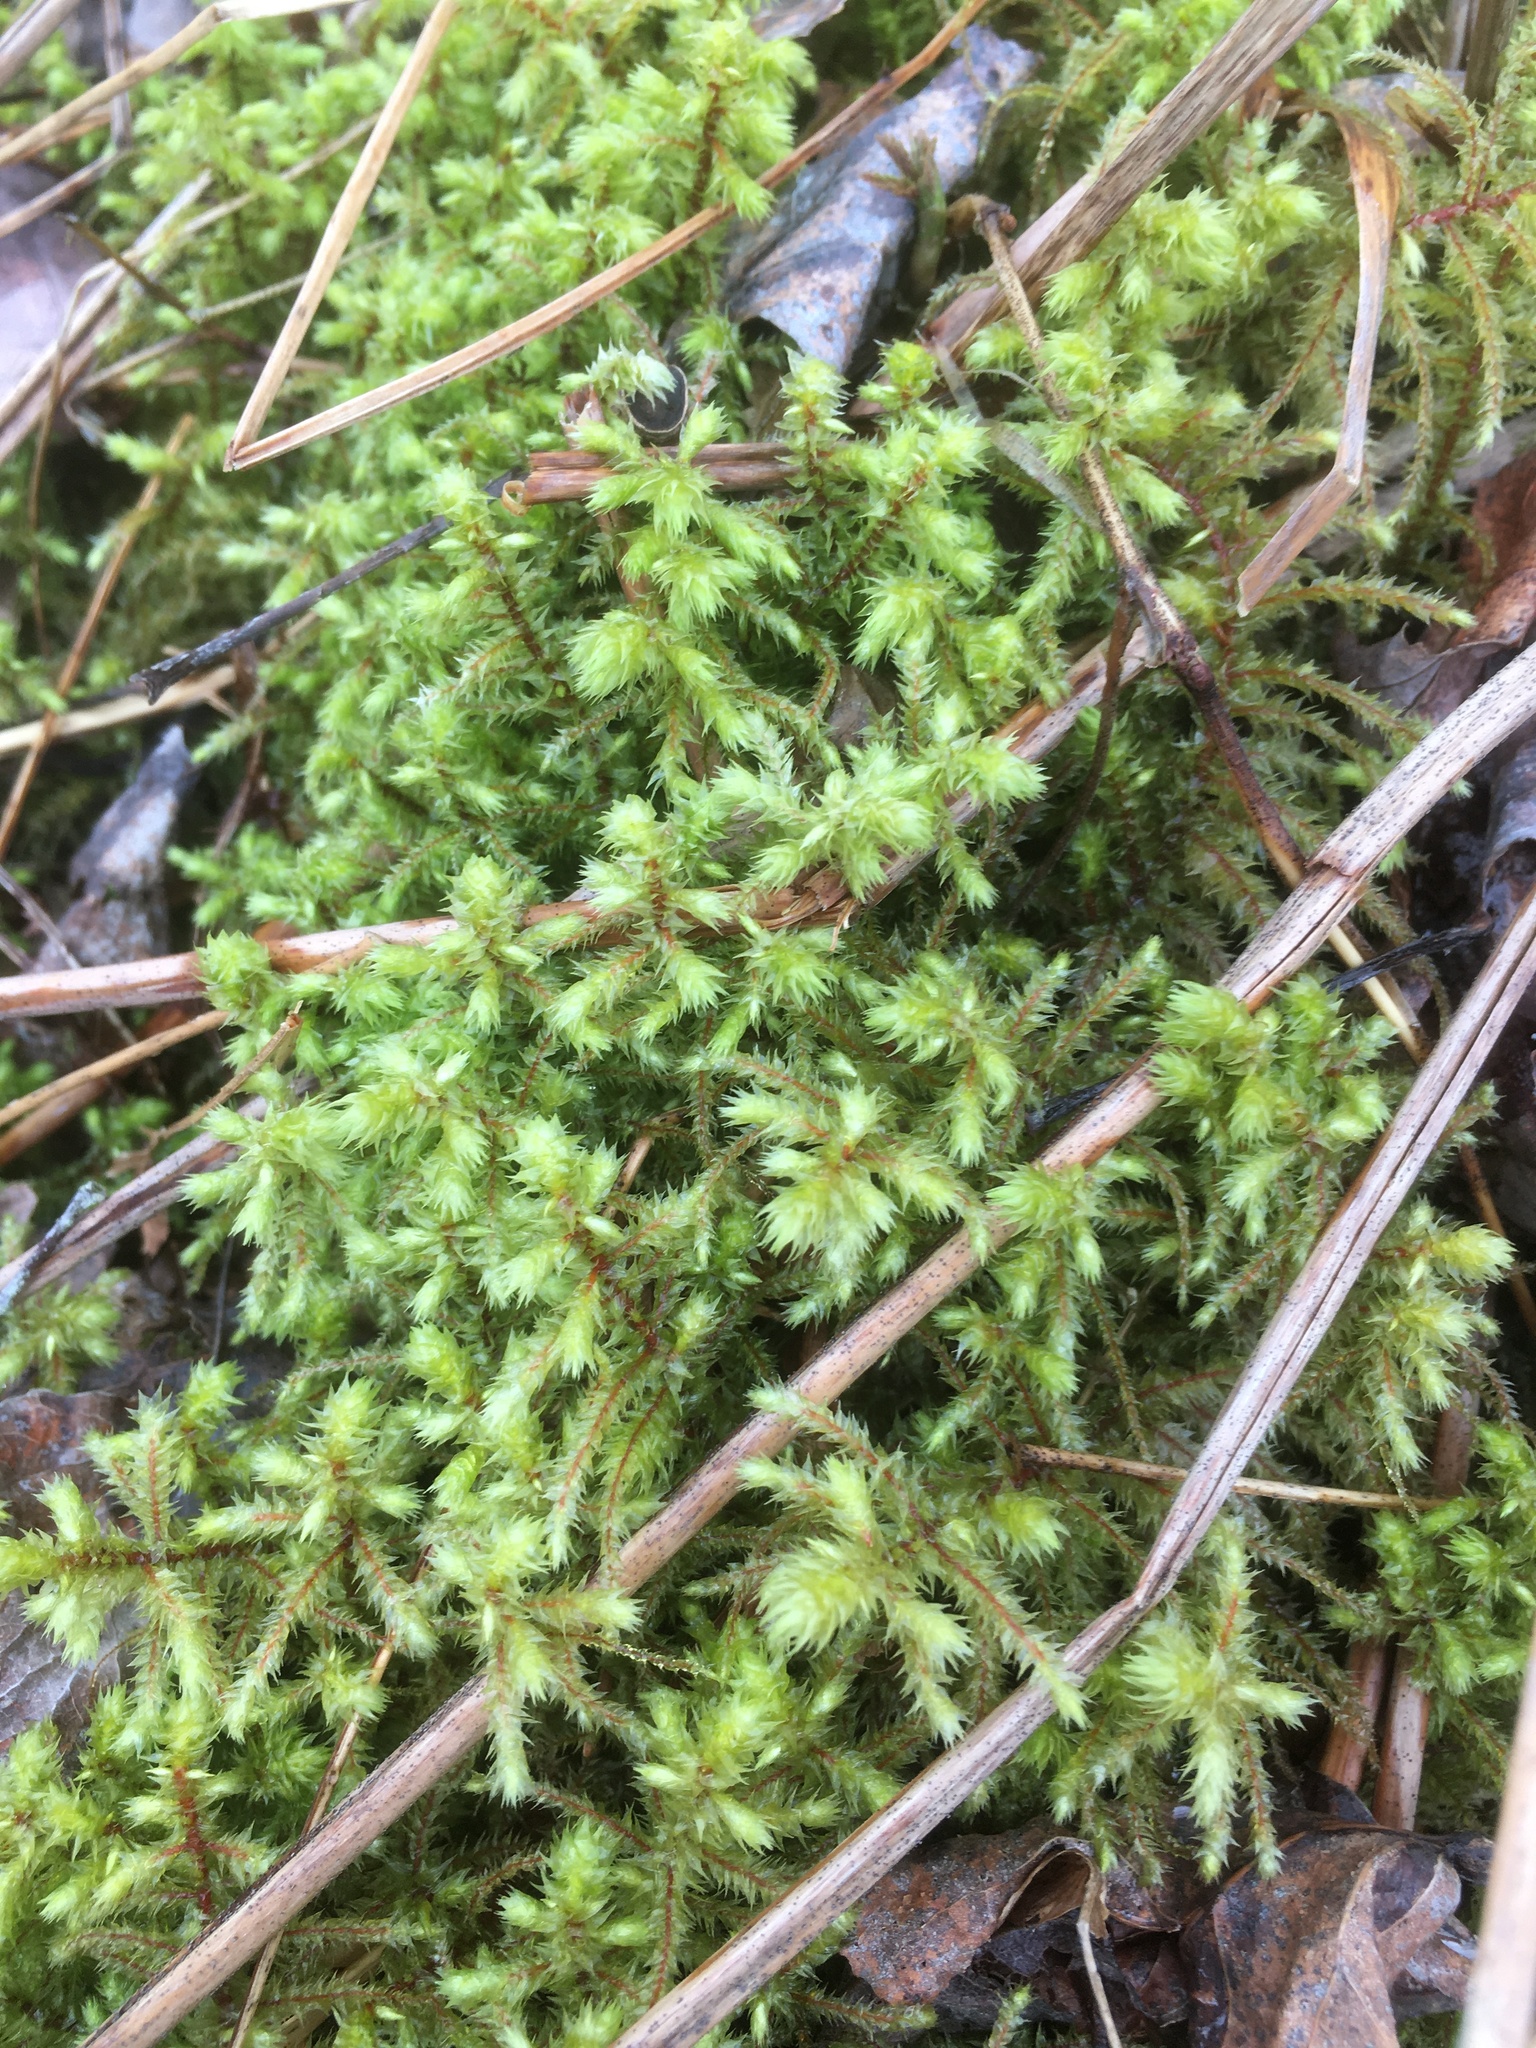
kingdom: Plantae
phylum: Bryophyta
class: Bryopsida
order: Hypnales
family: Hylocomiaceae
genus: Hylocomiadelphus
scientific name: Hylocomiadelphus triquetrus
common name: Rough goose neck moss
